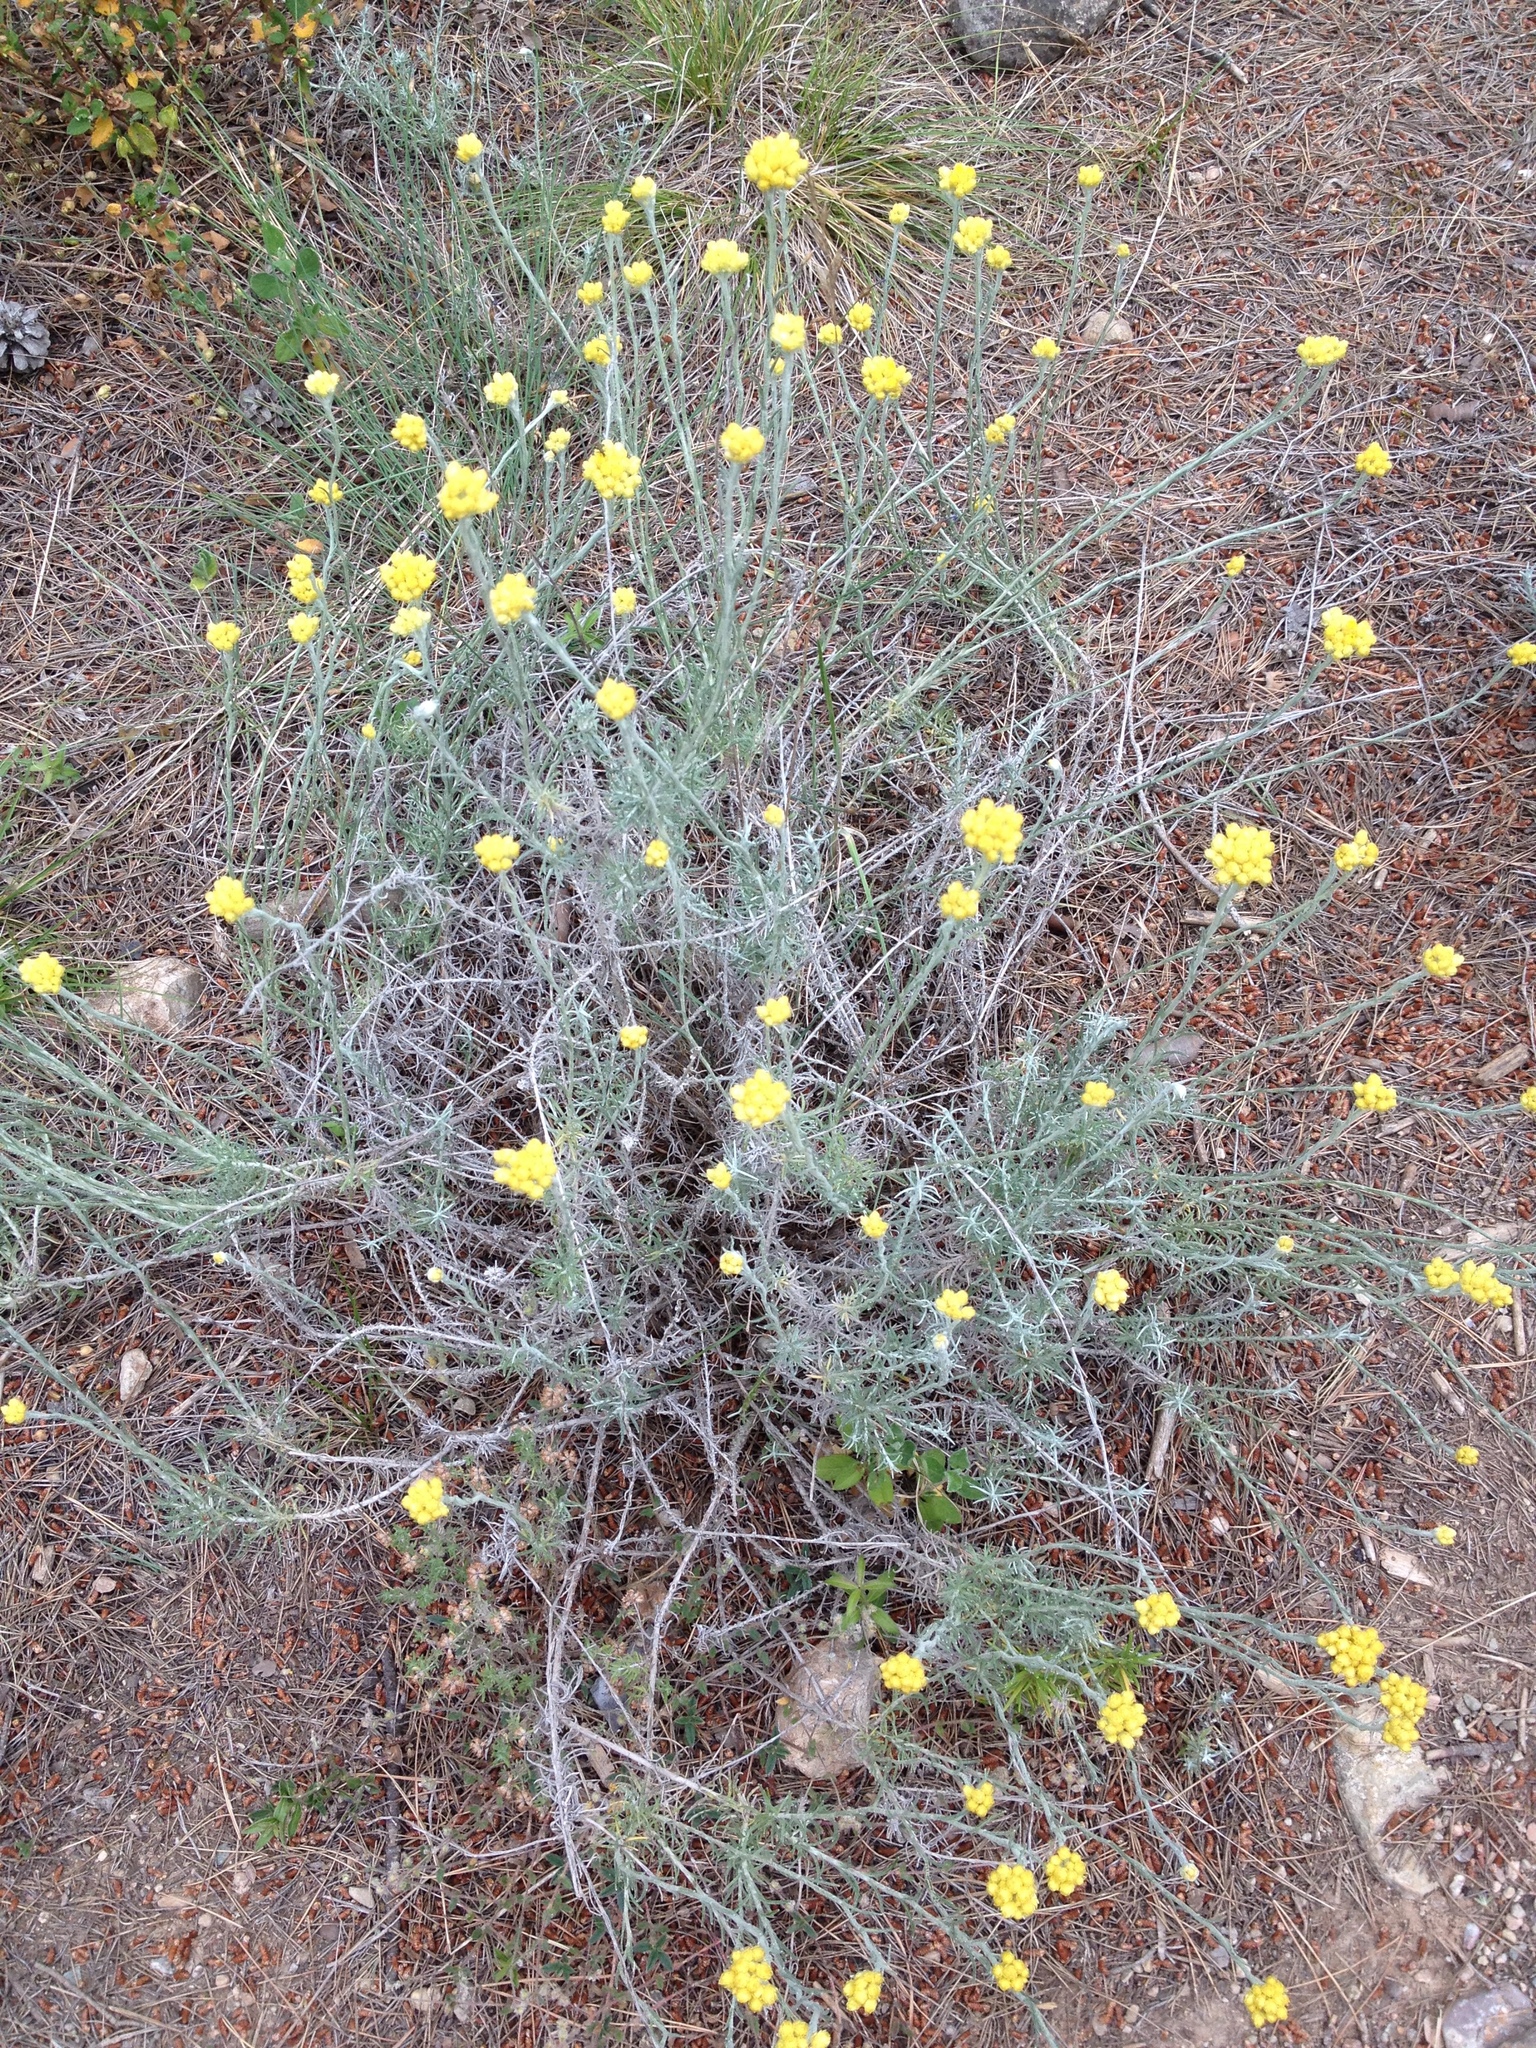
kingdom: Plantae
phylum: Tracheophyta
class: Magnoliopsida
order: Asterales
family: Asteraceae
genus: Helichrysum
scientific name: Helichrysum stoechas
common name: Goldilocks
